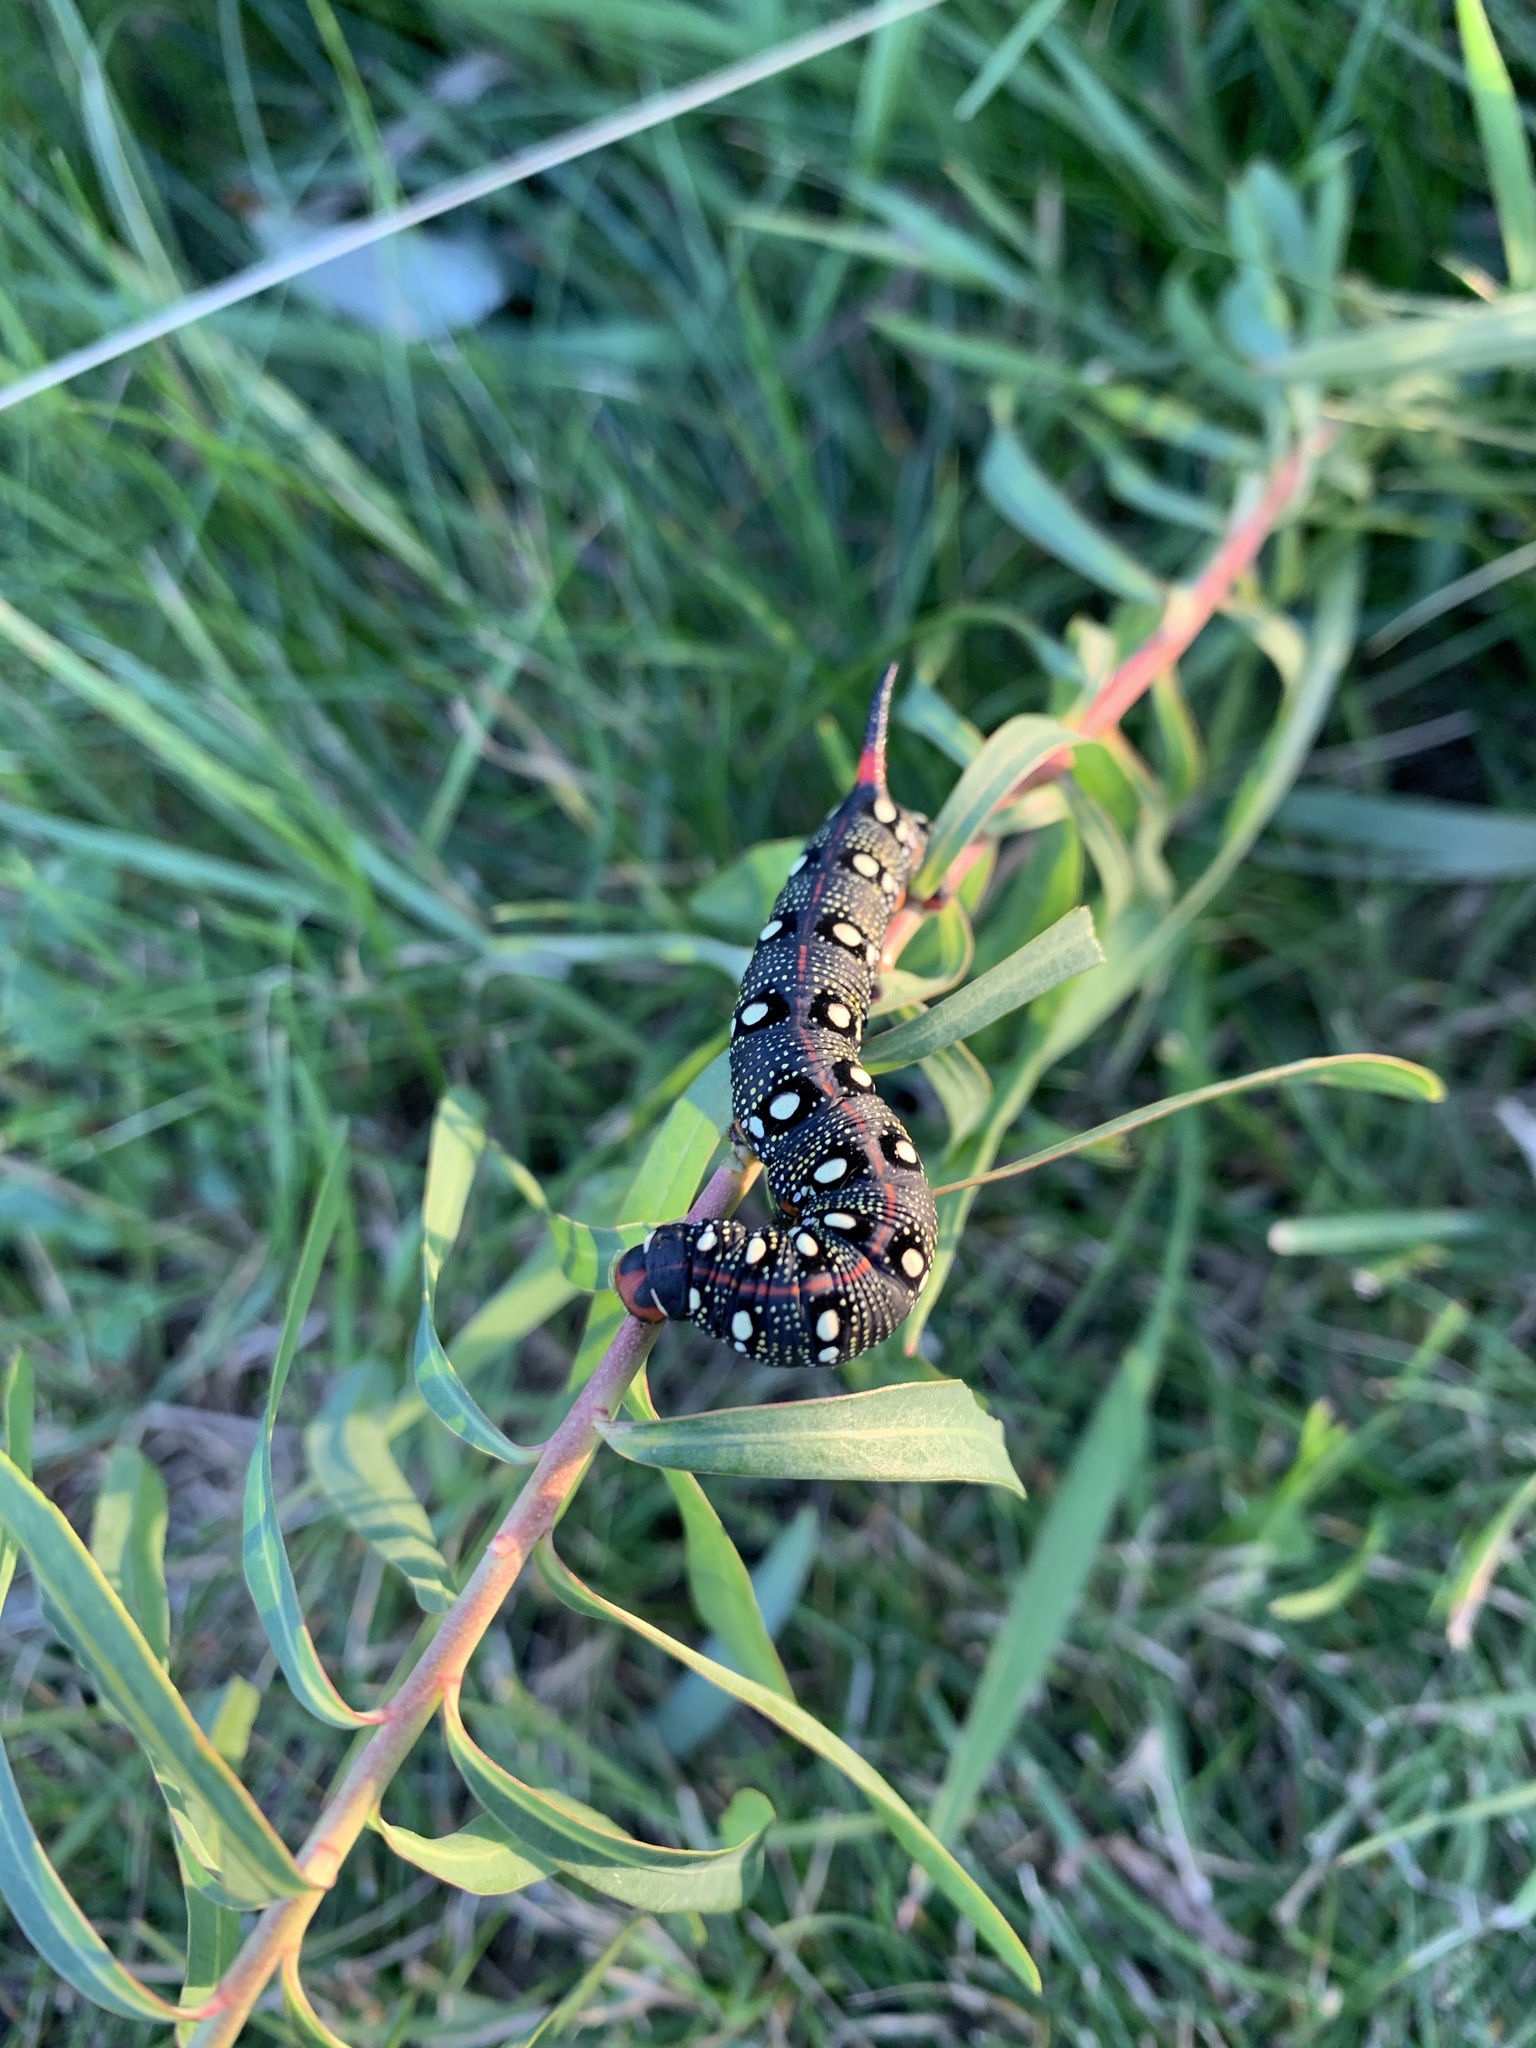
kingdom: Animalia
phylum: Arthropoda
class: Insecta
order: Lepidoptera
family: Sphingidae
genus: Hyles
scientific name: Hyles euphorbiae
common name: Spurge hawk-moth
